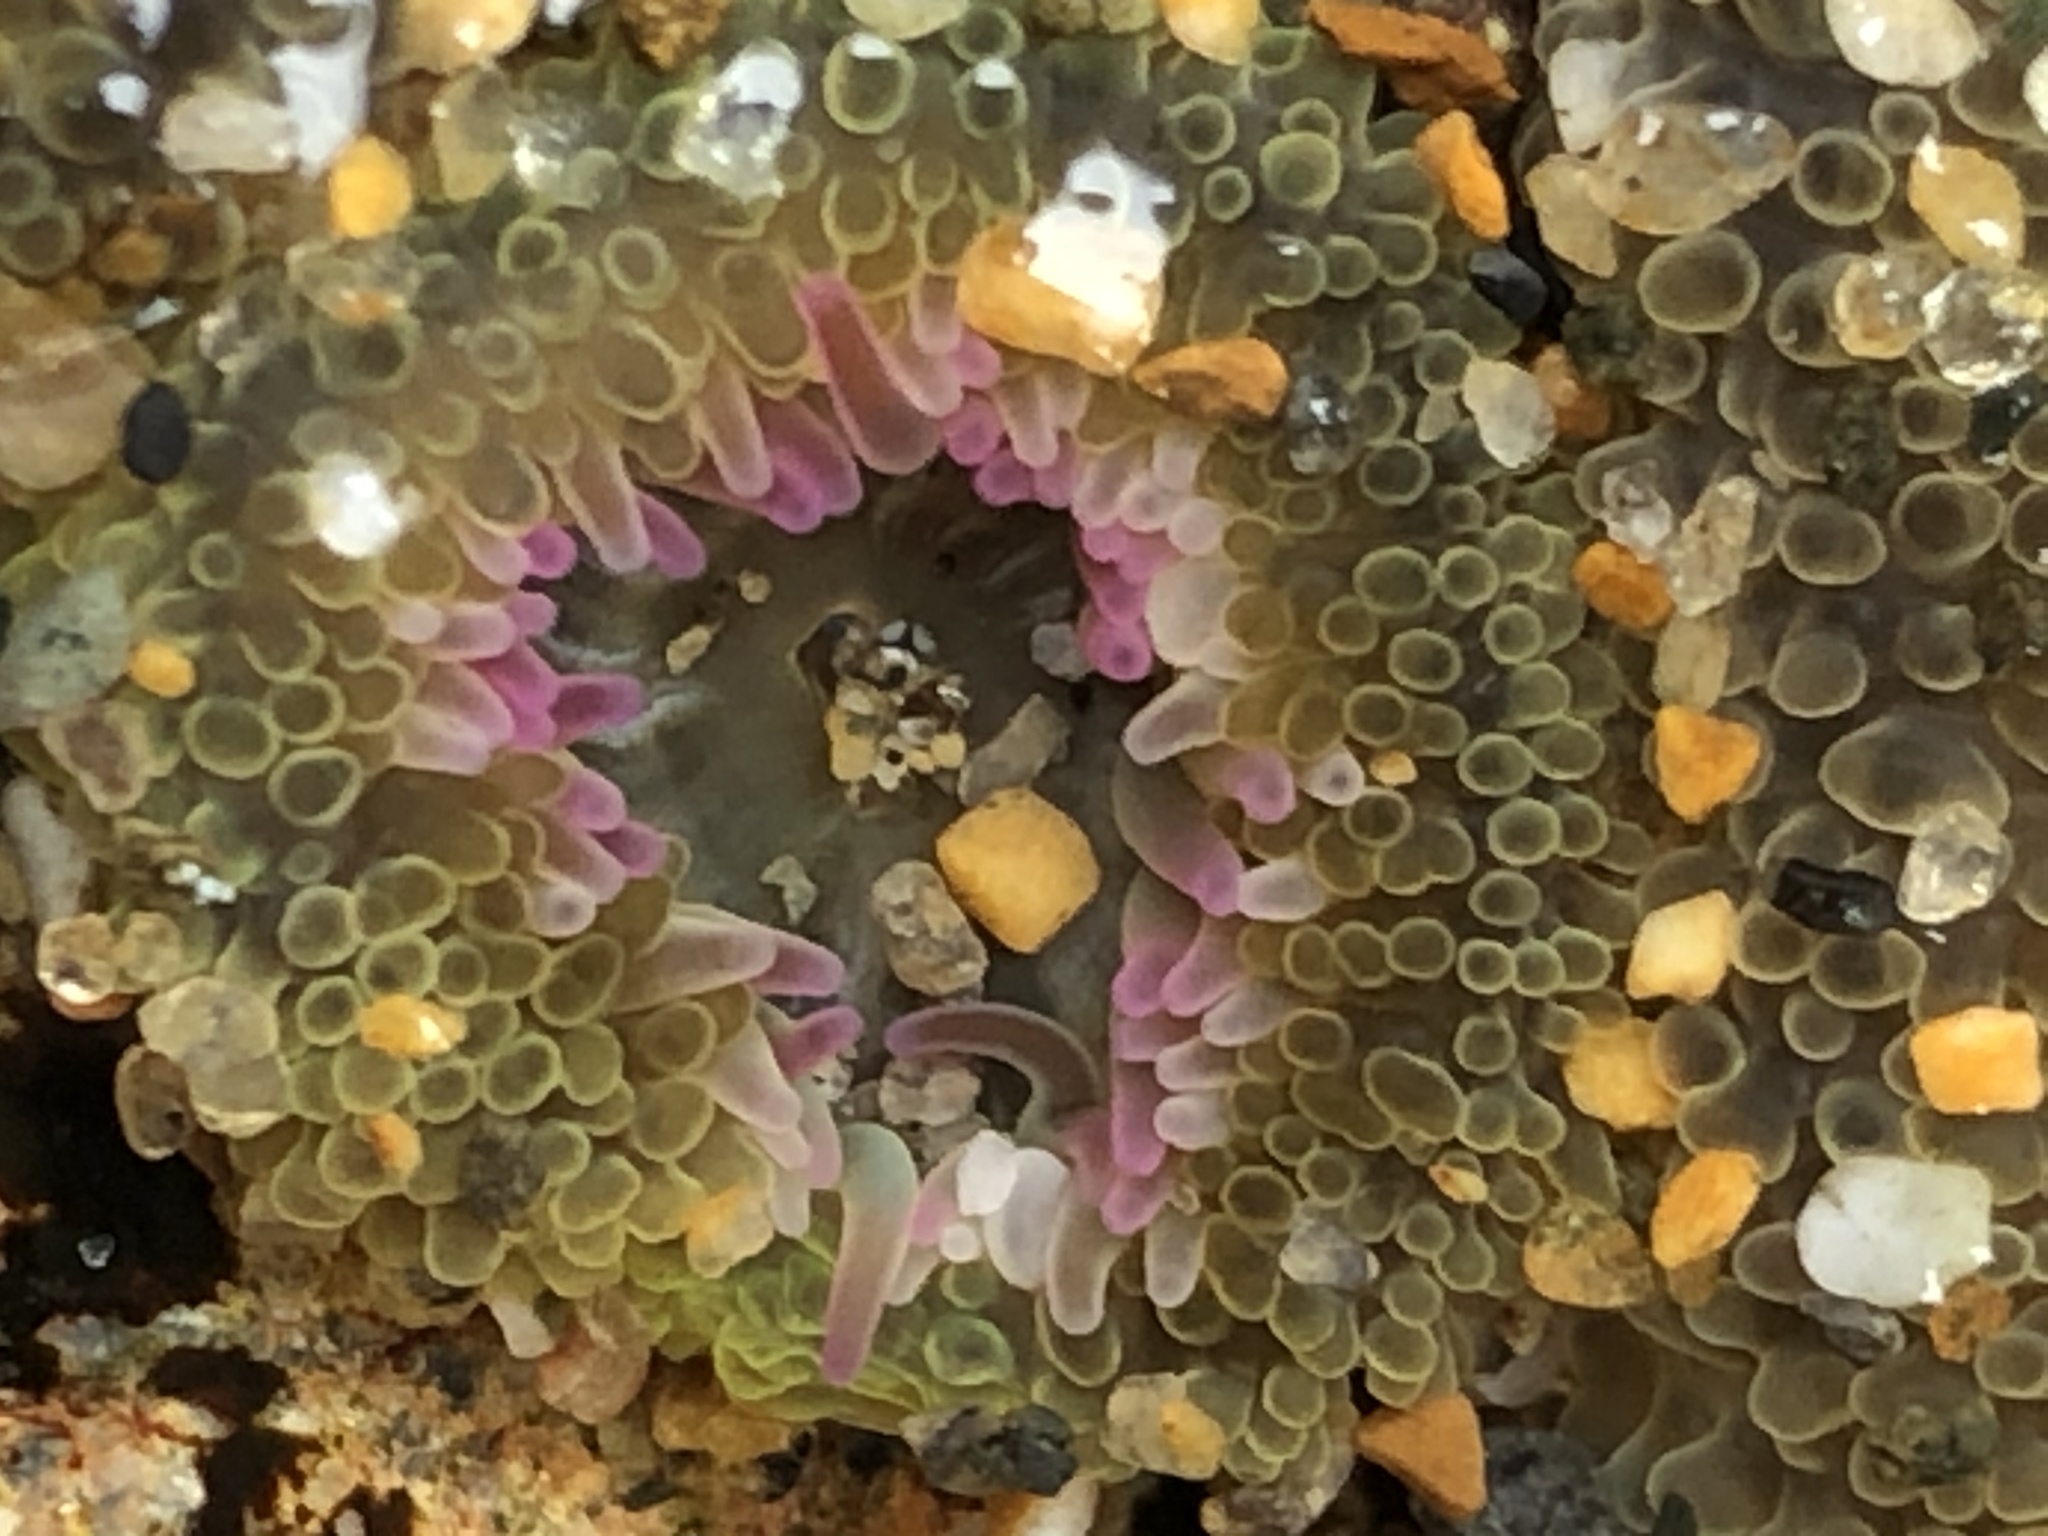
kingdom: Animalia
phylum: Cnidaria
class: Anthozoa
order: Actiniaria
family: Actiniidae
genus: Anthopleura
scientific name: Anthopleura elegantissima
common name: Clonal anemone
